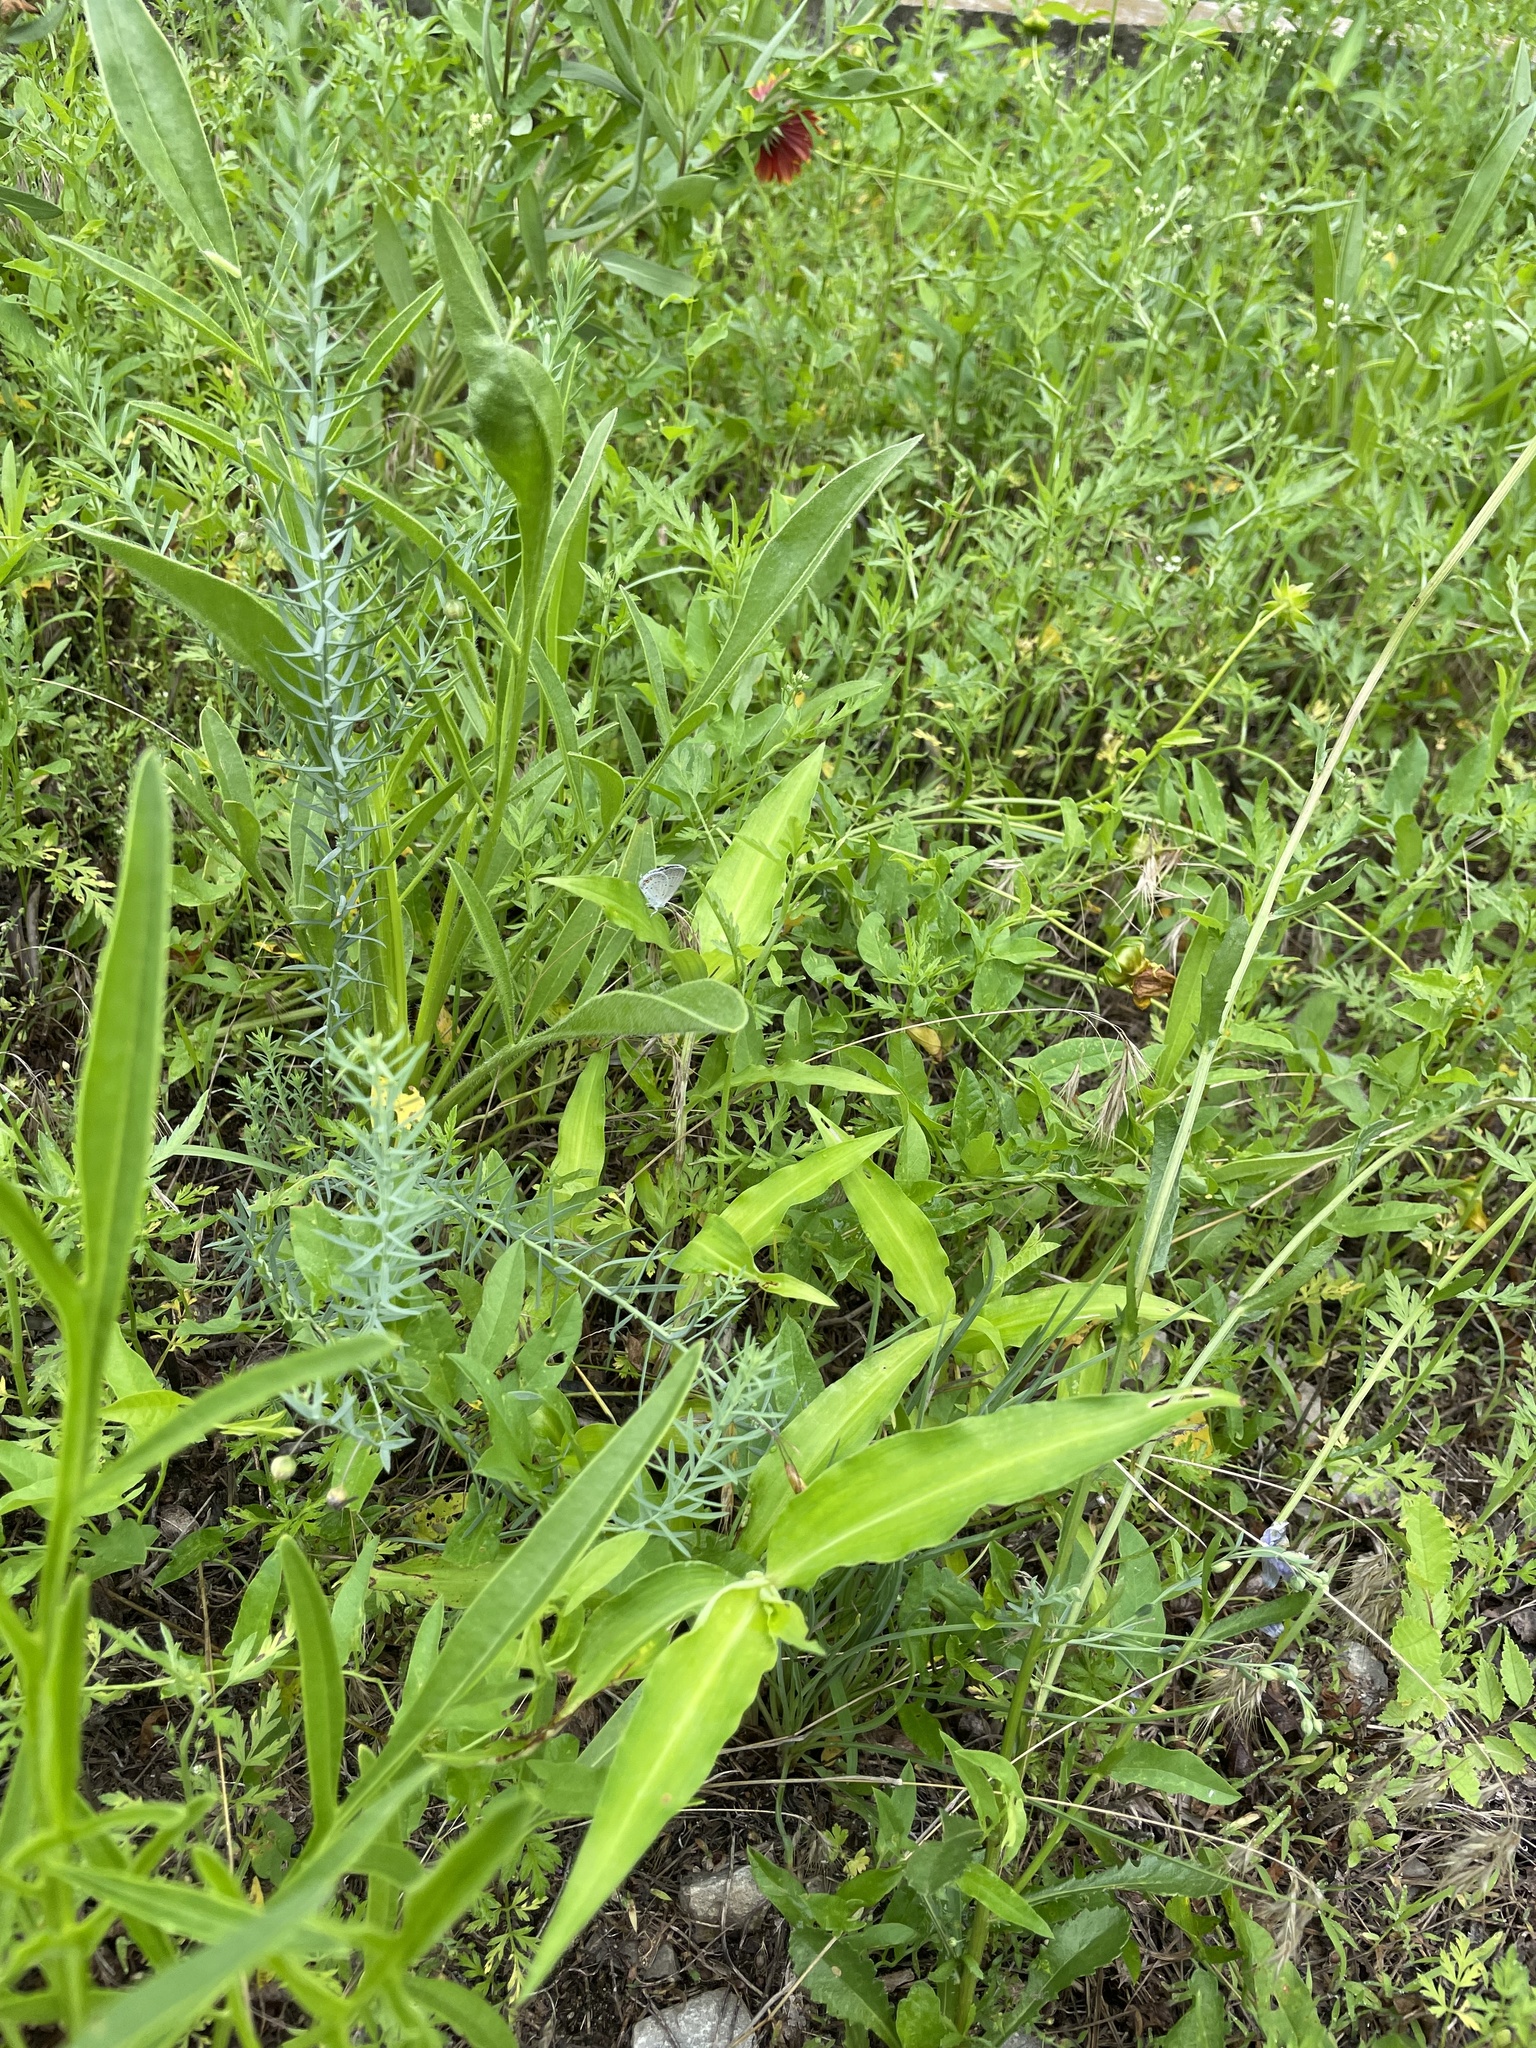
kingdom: Animalia
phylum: Arthropoda
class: Insecta
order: Lepidoptera
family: Lycaenidae
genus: Elkalyce
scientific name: Elkalyce comyntas
